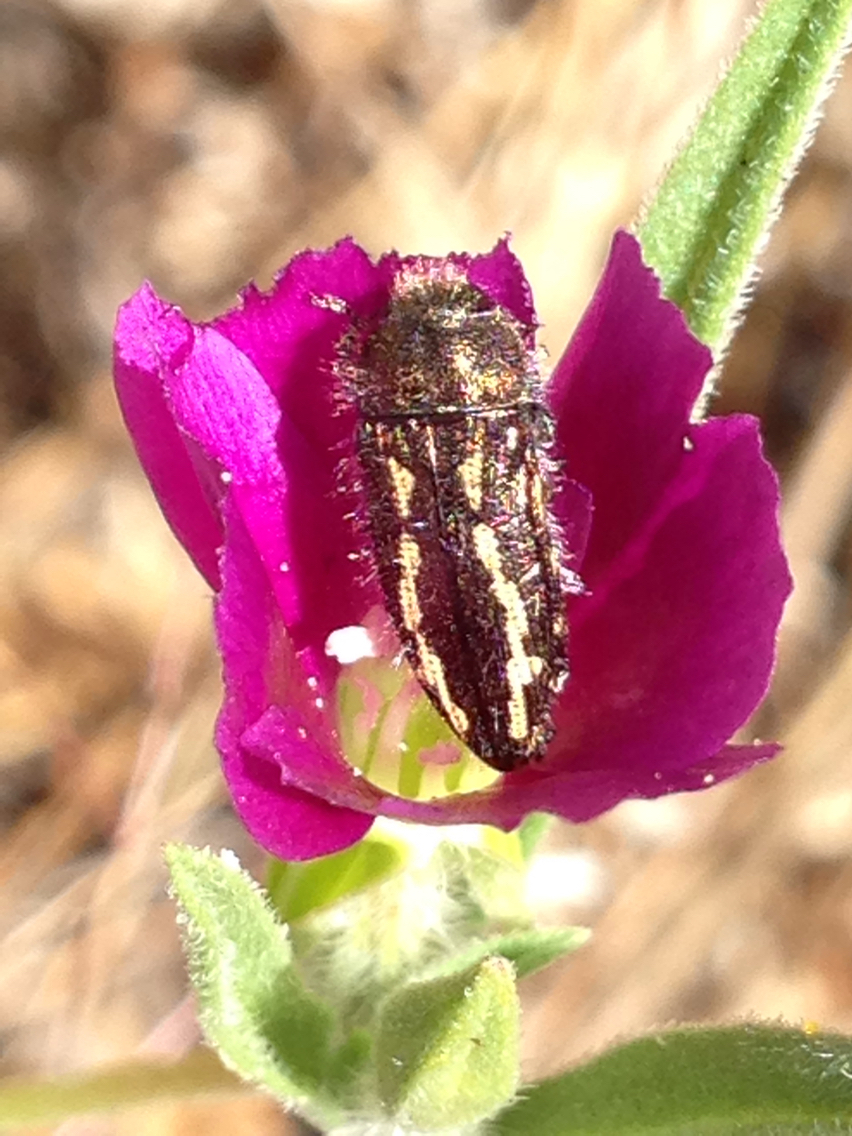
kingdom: Animalia
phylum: Arthropoda
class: Insecta
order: Coleoptera
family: Buprestidae
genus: Acmaeodera
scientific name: Acmaeodera retifera
